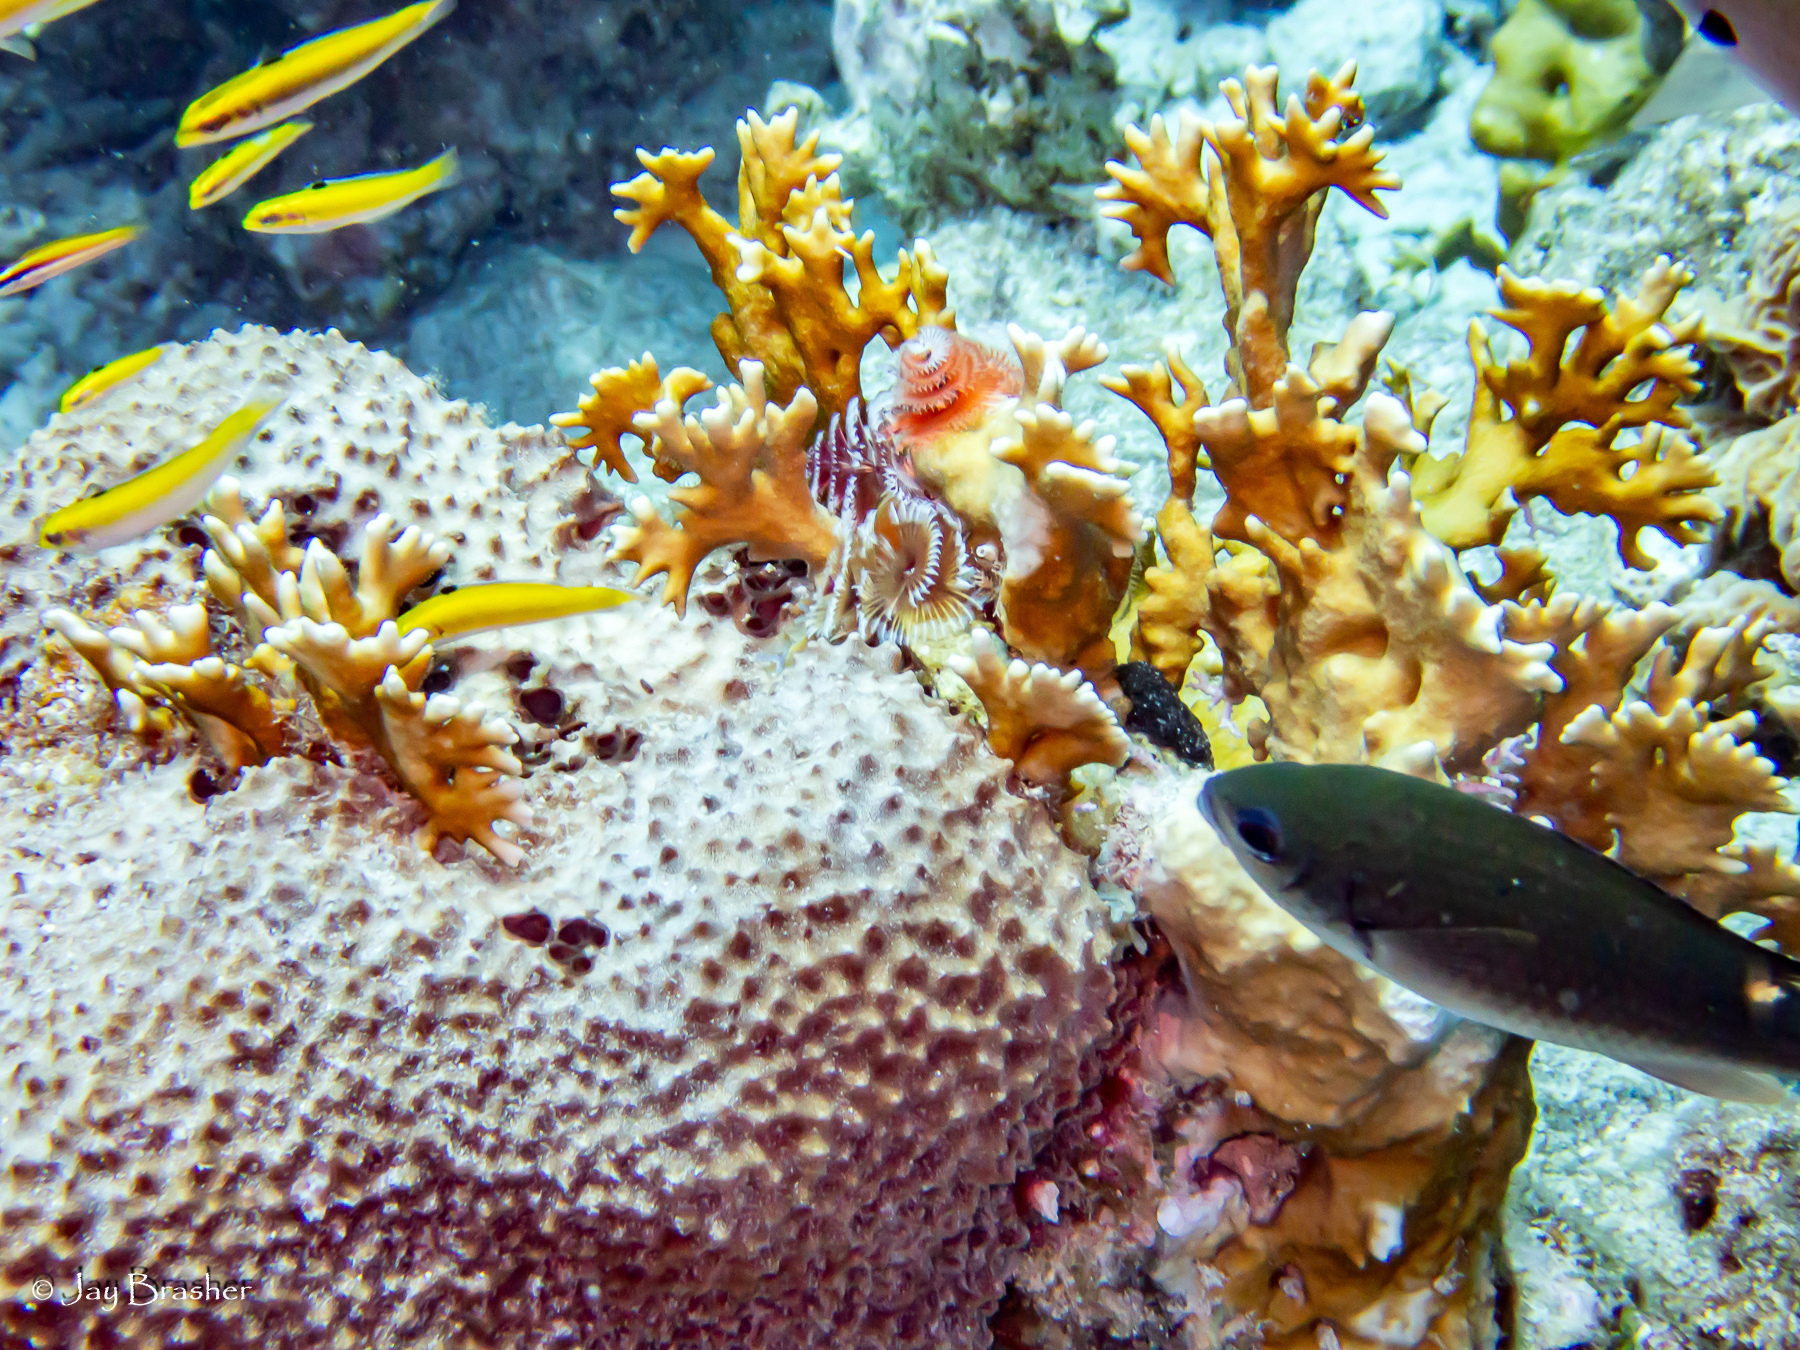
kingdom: Animalia
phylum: Cnidaria
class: Hydrozoa
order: Anthoathecata
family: Milleporidae
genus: Millepora
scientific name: Millepora alcicornis
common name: Branching fire coral
